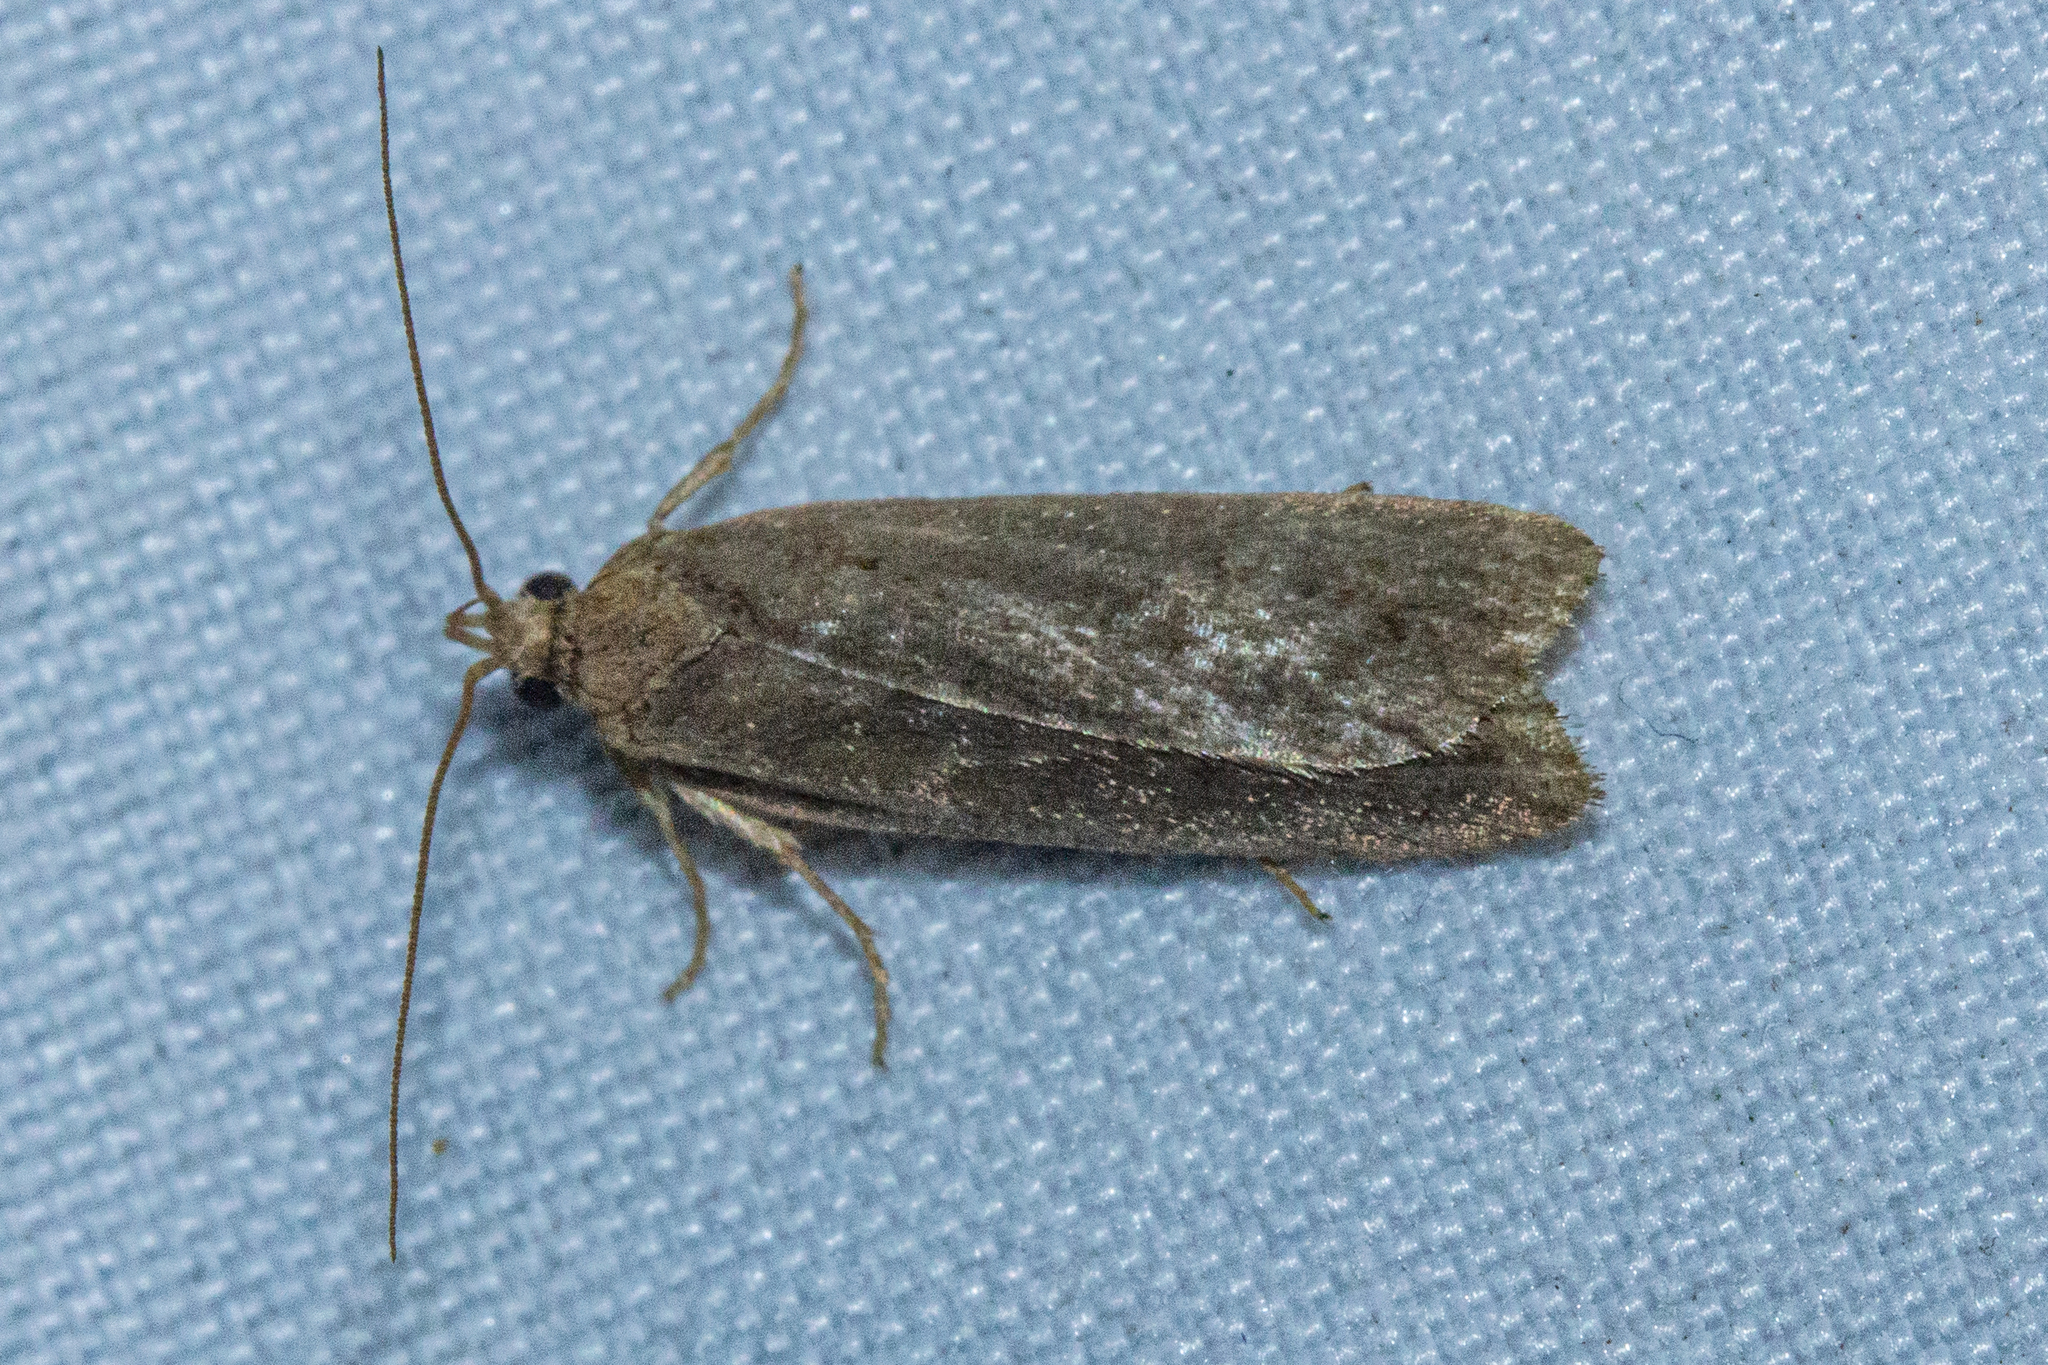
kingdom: Animalia
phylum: Arthropoda
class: Insecta
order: Lepidoptera
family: Depressariidae
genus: Phaeosaces
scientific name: Phaeosaces apocrypta
